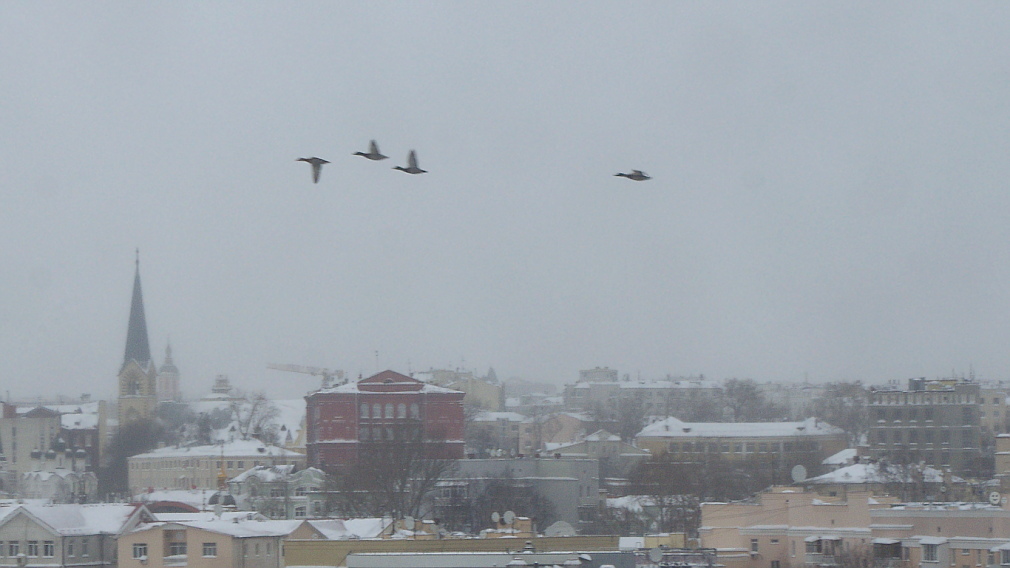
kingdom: Animalia
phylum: Chordata
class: Aves
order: Anseriformes
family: Anatidae
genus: Anas
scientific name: Anas platyrhynchos
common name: Mallard
